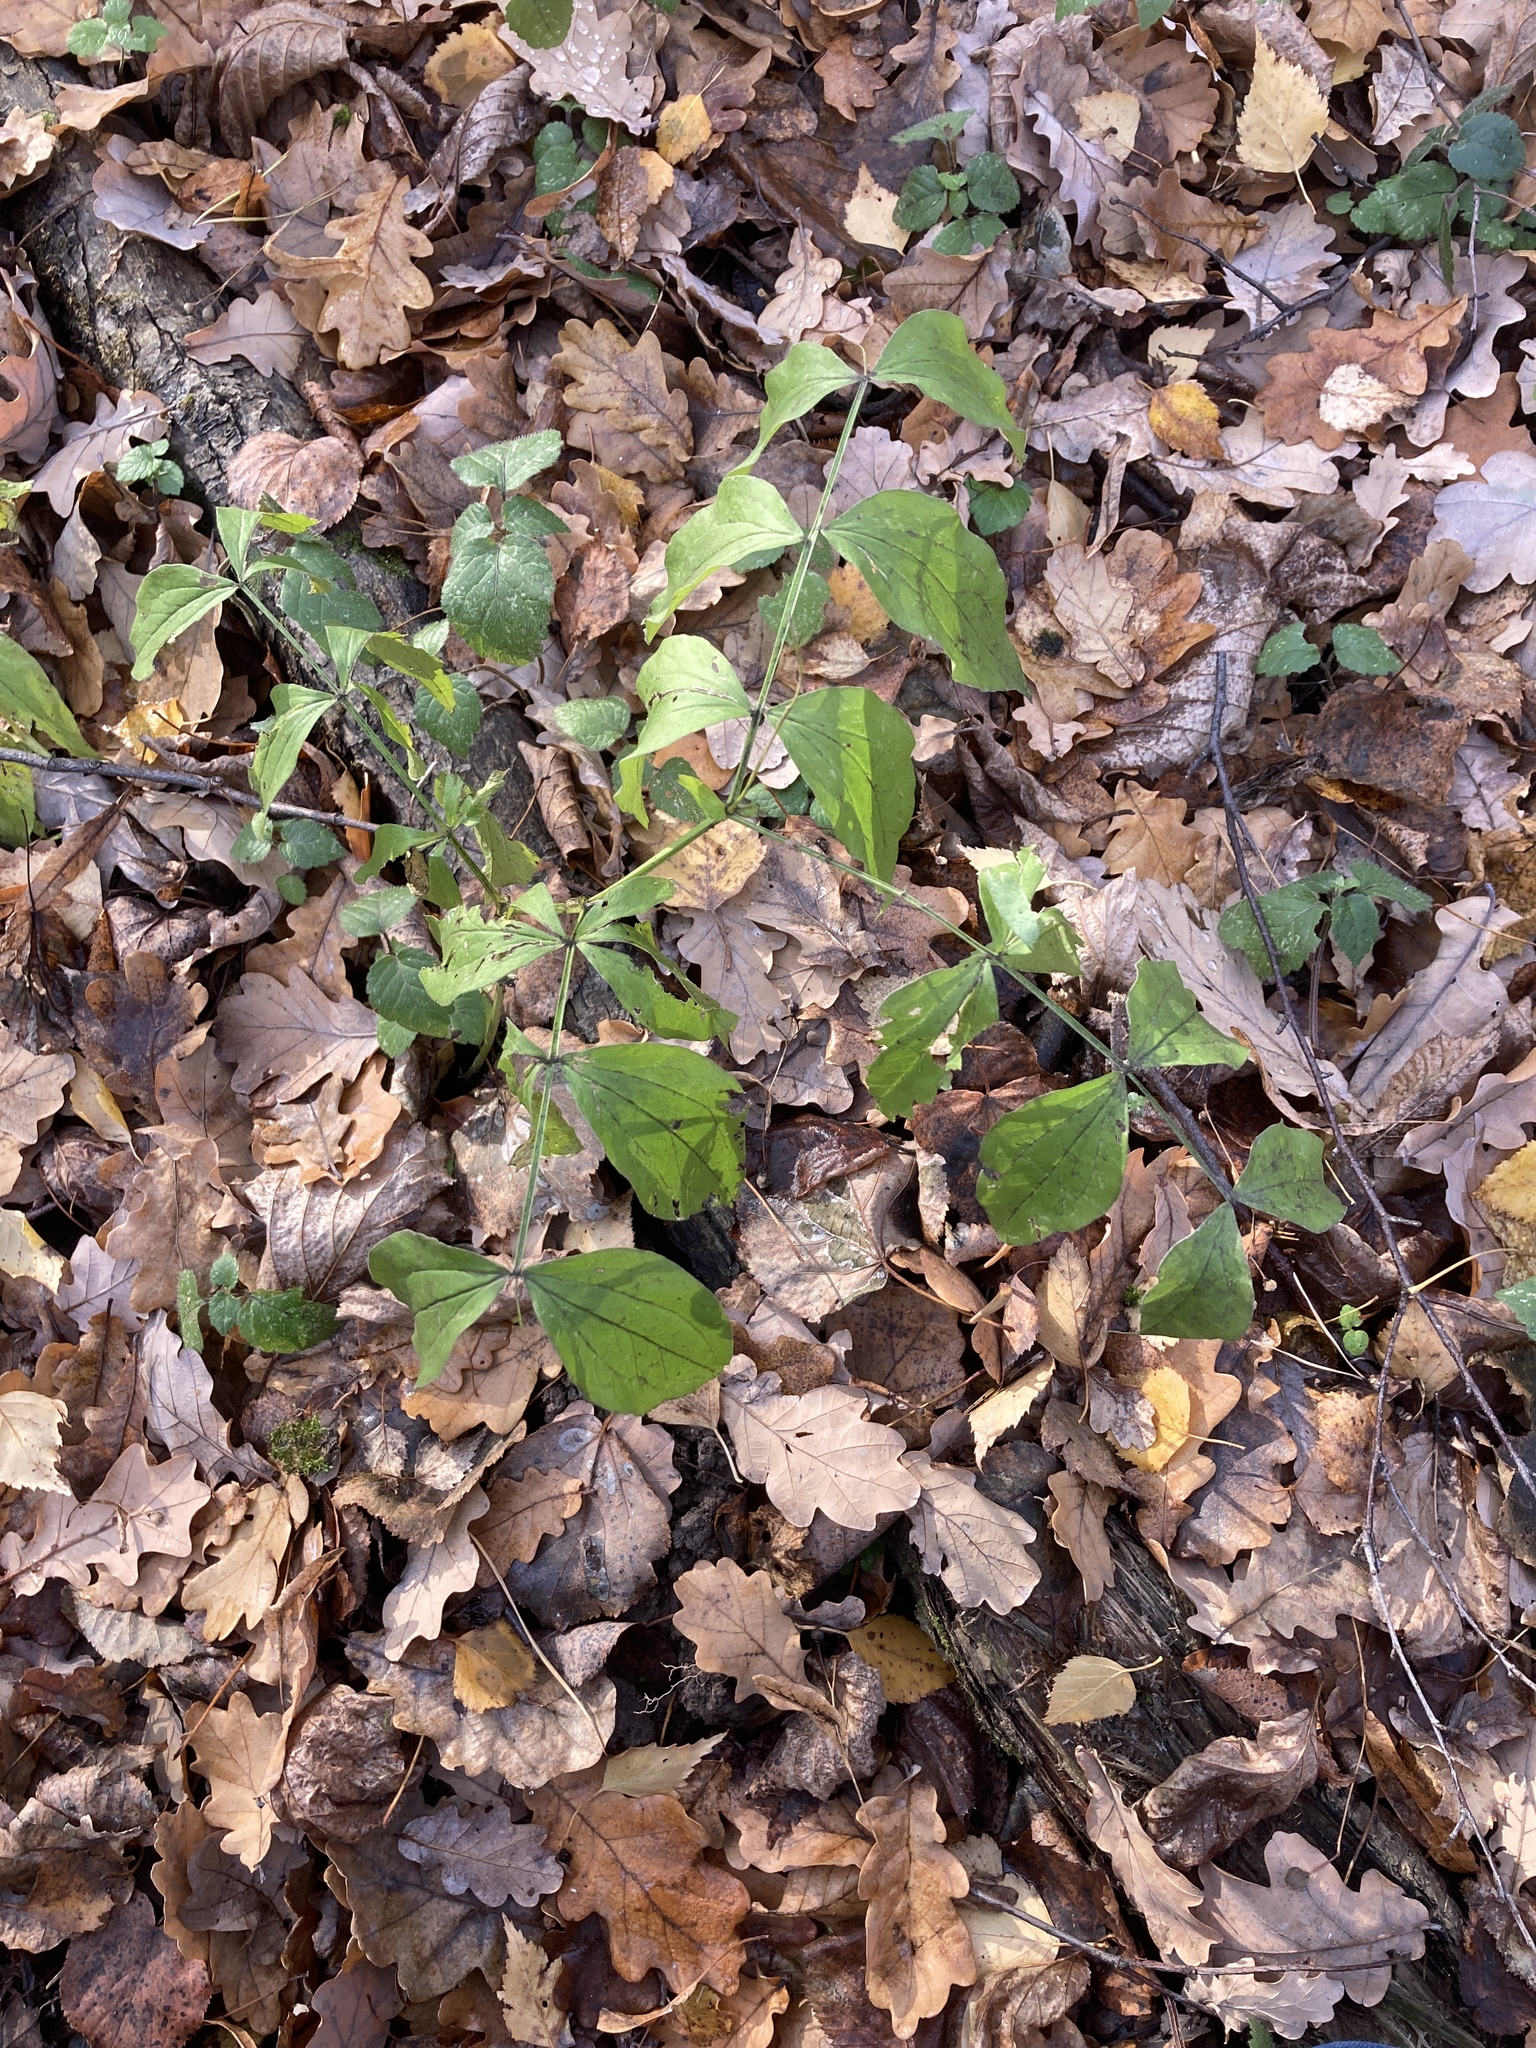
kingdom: Plantae
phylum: Tracheophyta
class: Magnoliopsida
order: Fabales
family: Fabaceae
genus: Lathyrus
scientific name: Lathyrus vernus
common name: Spring pea
